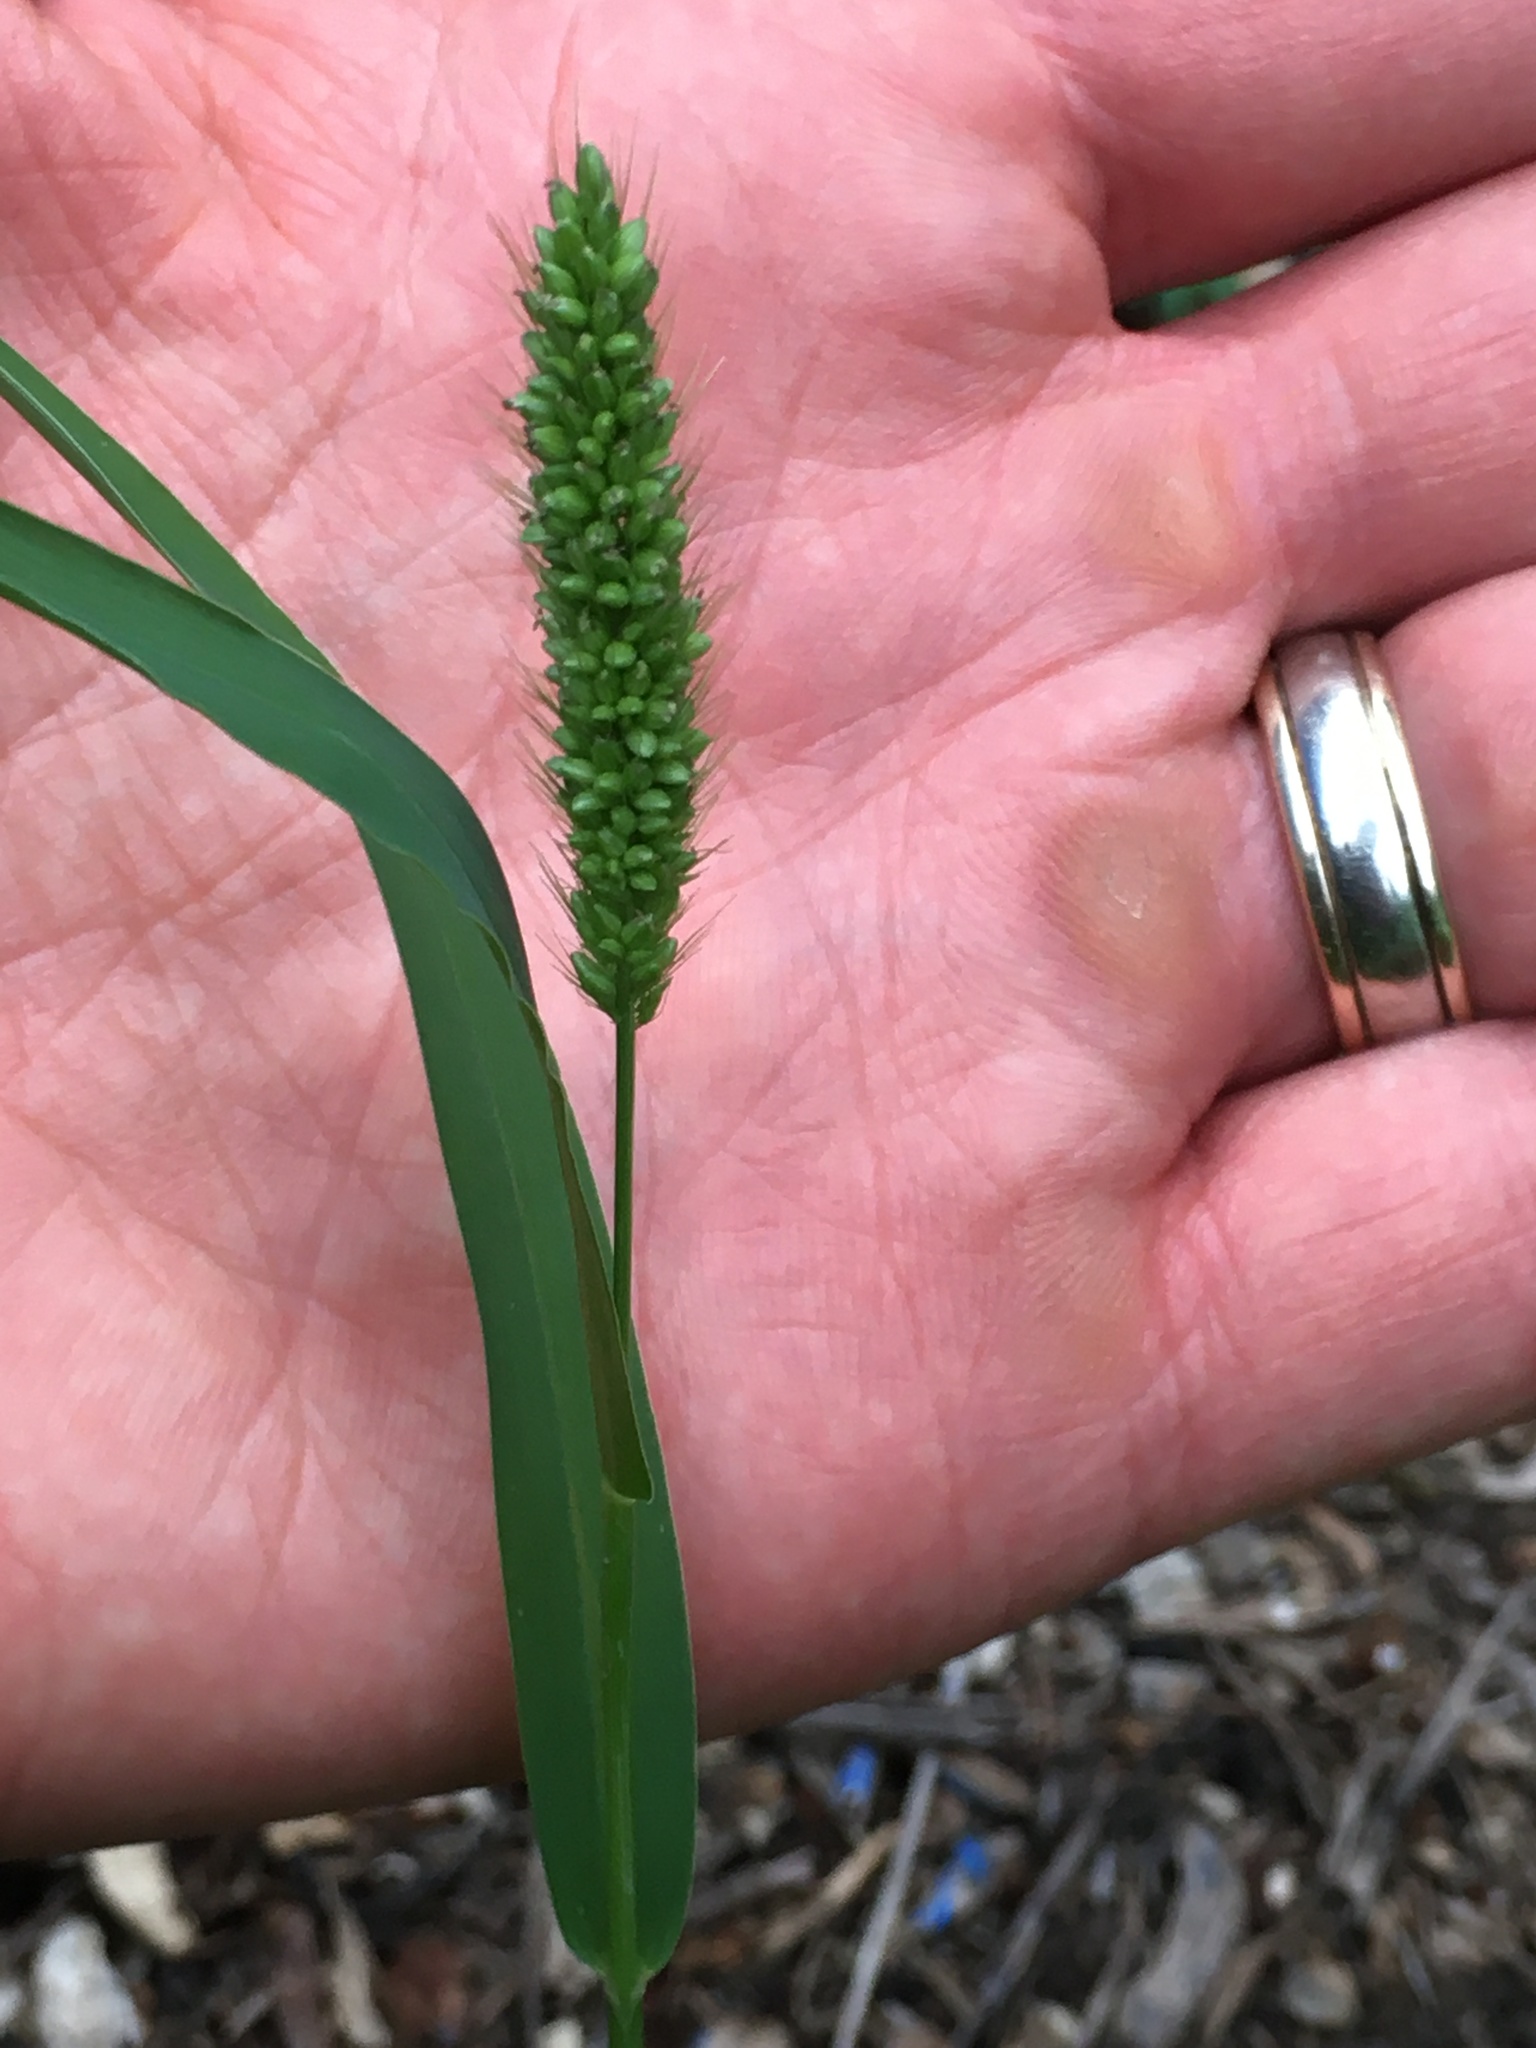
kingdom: Plantae
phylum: Tracheophyta
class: Liliopsida
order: Poales
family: Poaceae
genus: Setaria
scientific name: Setaria viridis
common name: Green bristlegrass
